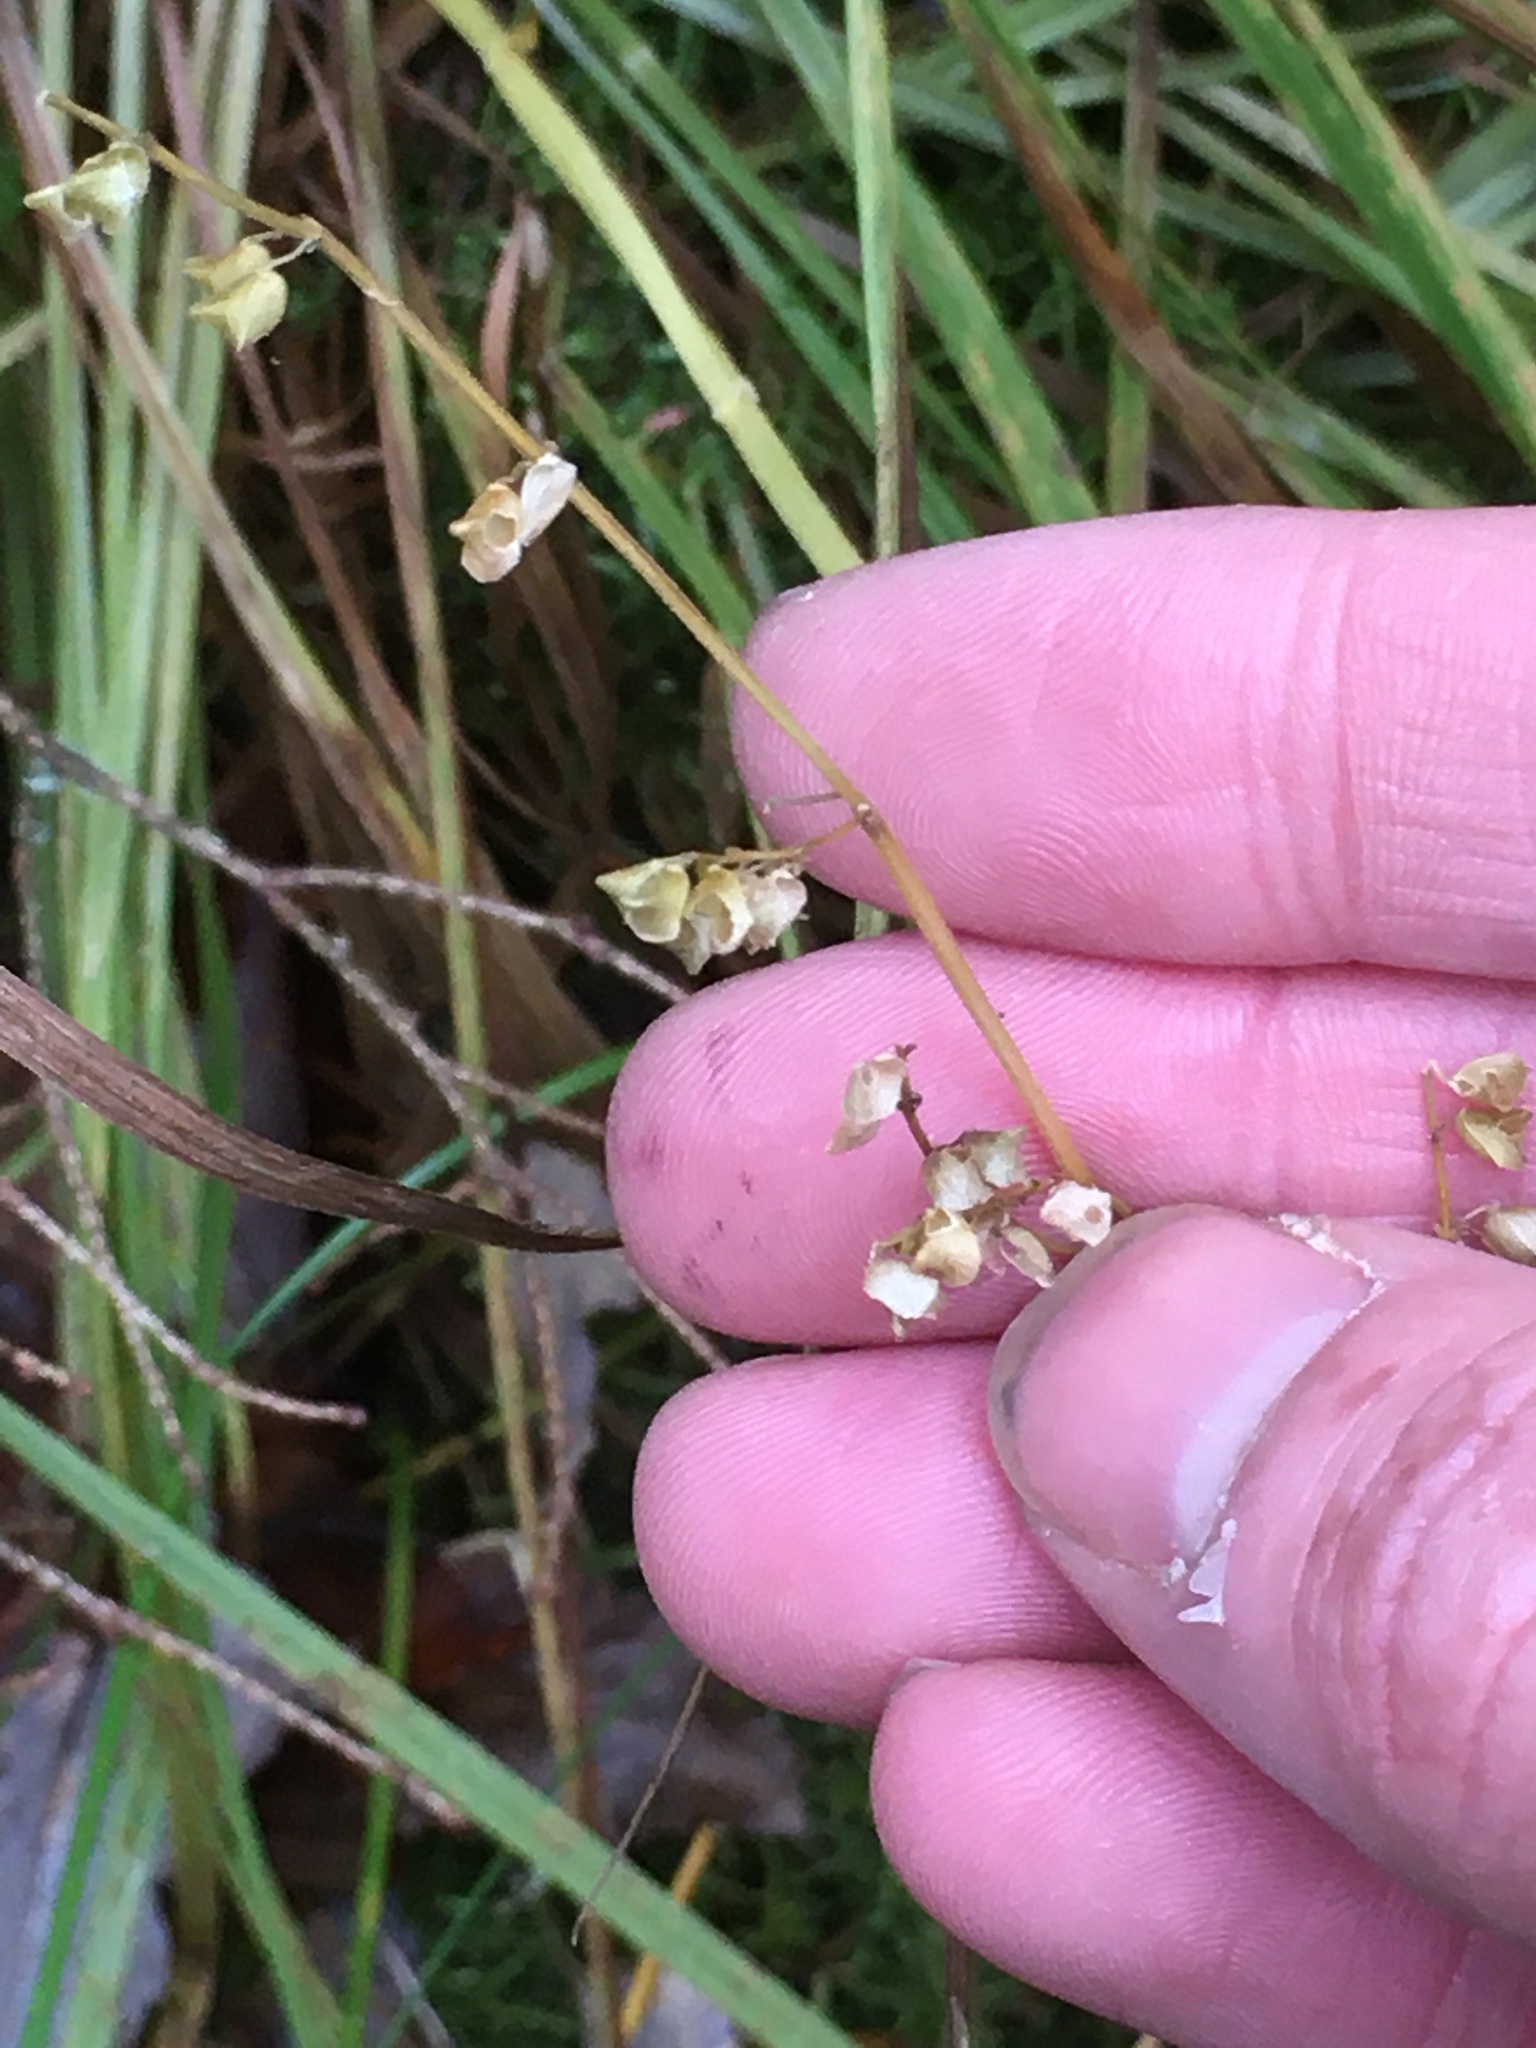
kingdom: Plantae
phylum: Tracheophyta
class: Magnoliopsida
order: Lamiales
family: Plantaginaceae
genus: Veronica
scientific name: Veronica americana
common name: American brooklime
